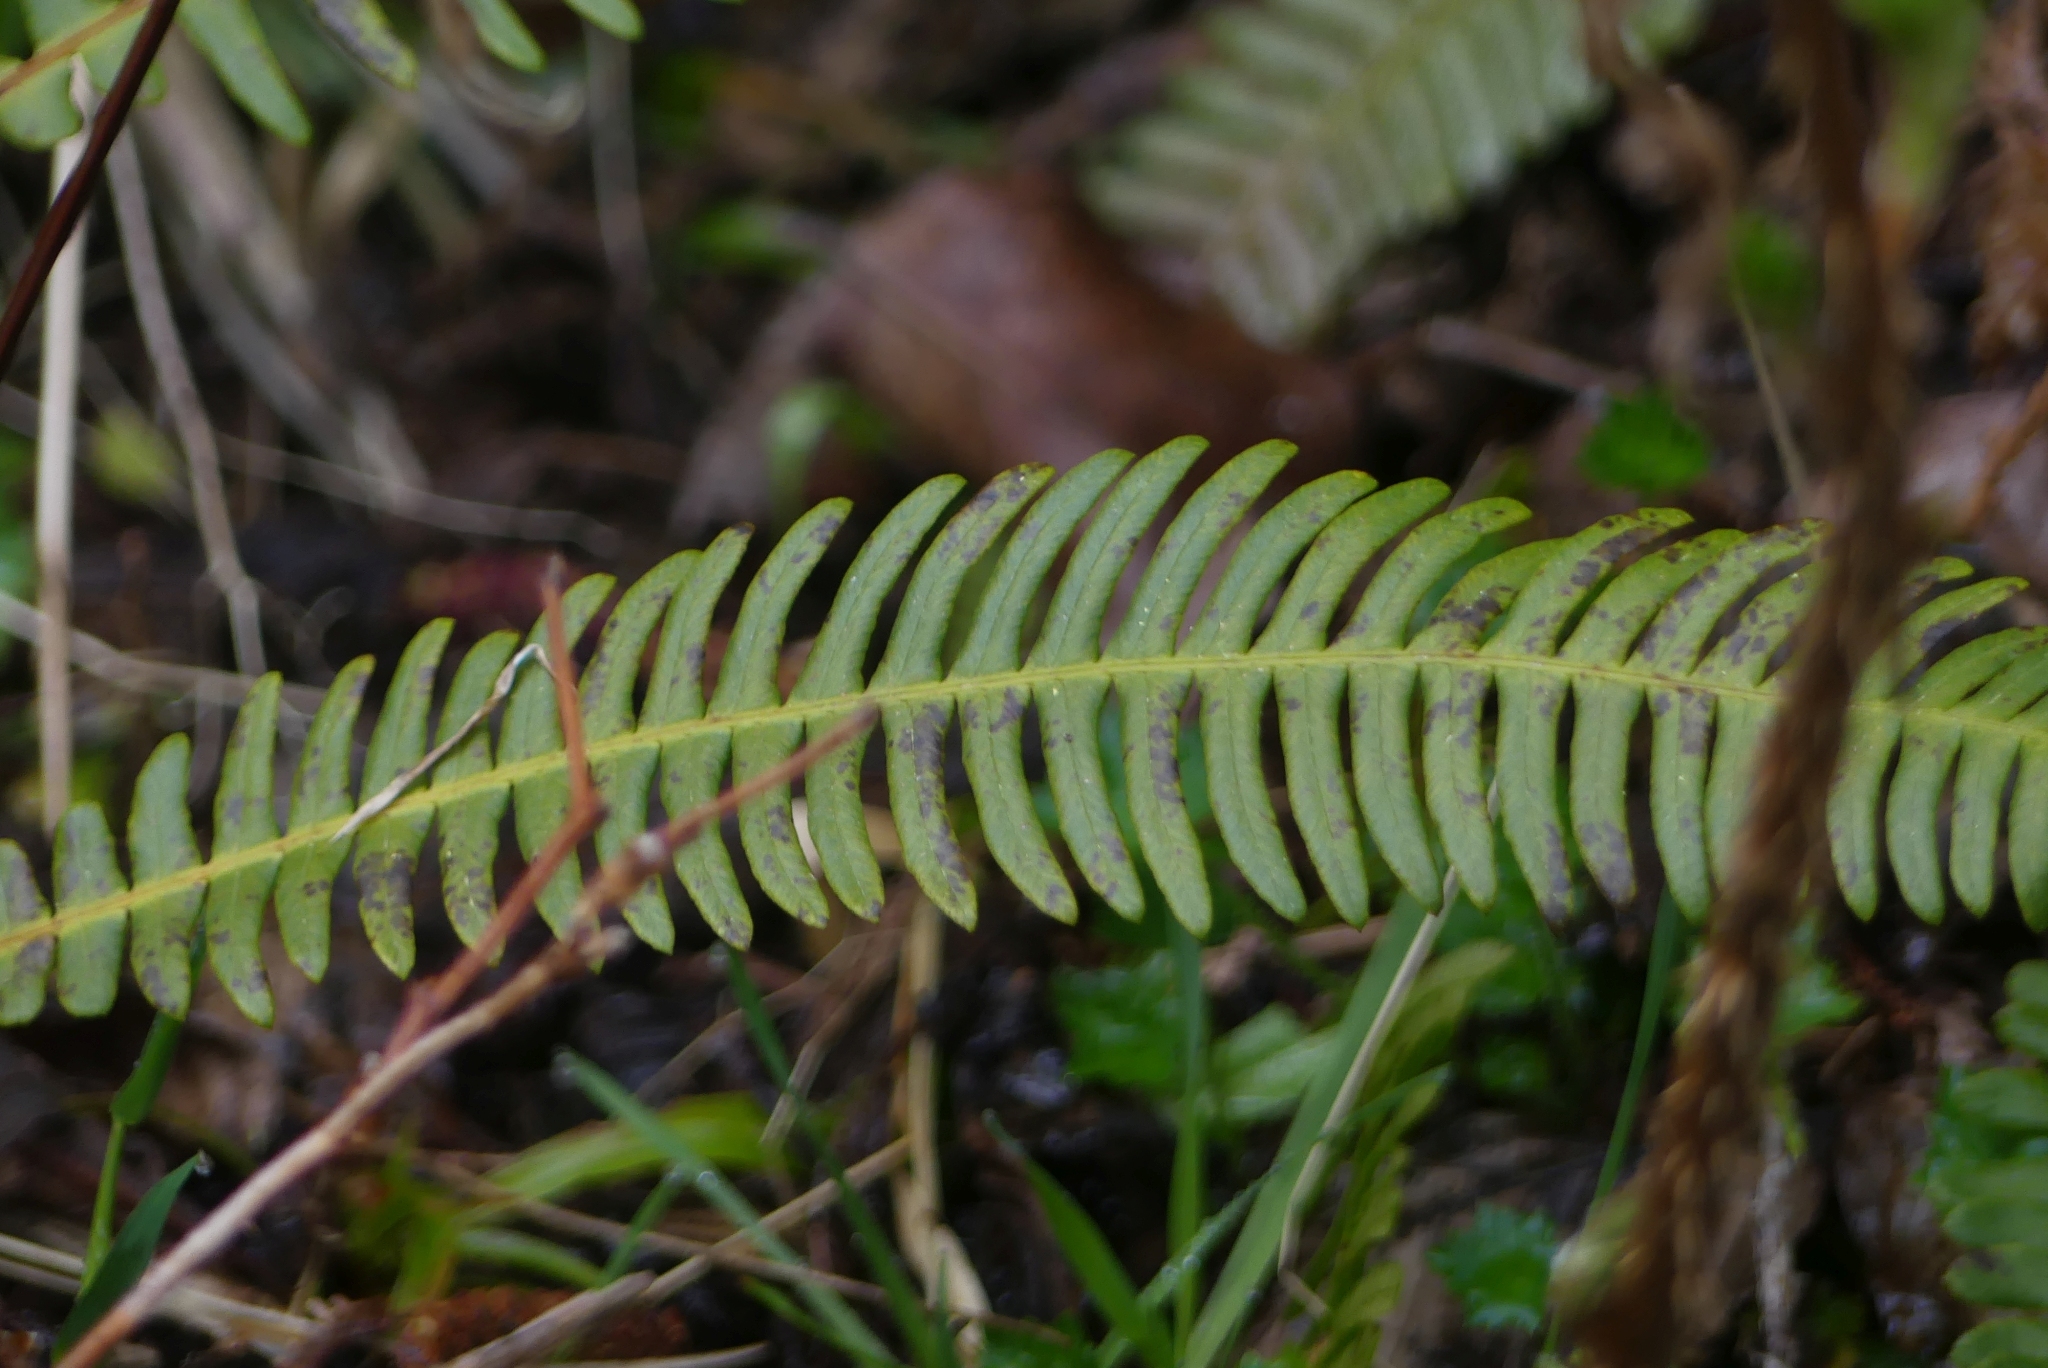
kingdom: Plantae
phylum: Tracheophyta
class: Polypodiopsida
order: Polypodiales
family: Blechnaceae
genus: Struthiopteris
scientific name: Struthiopteris spicant
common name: Deer fern
